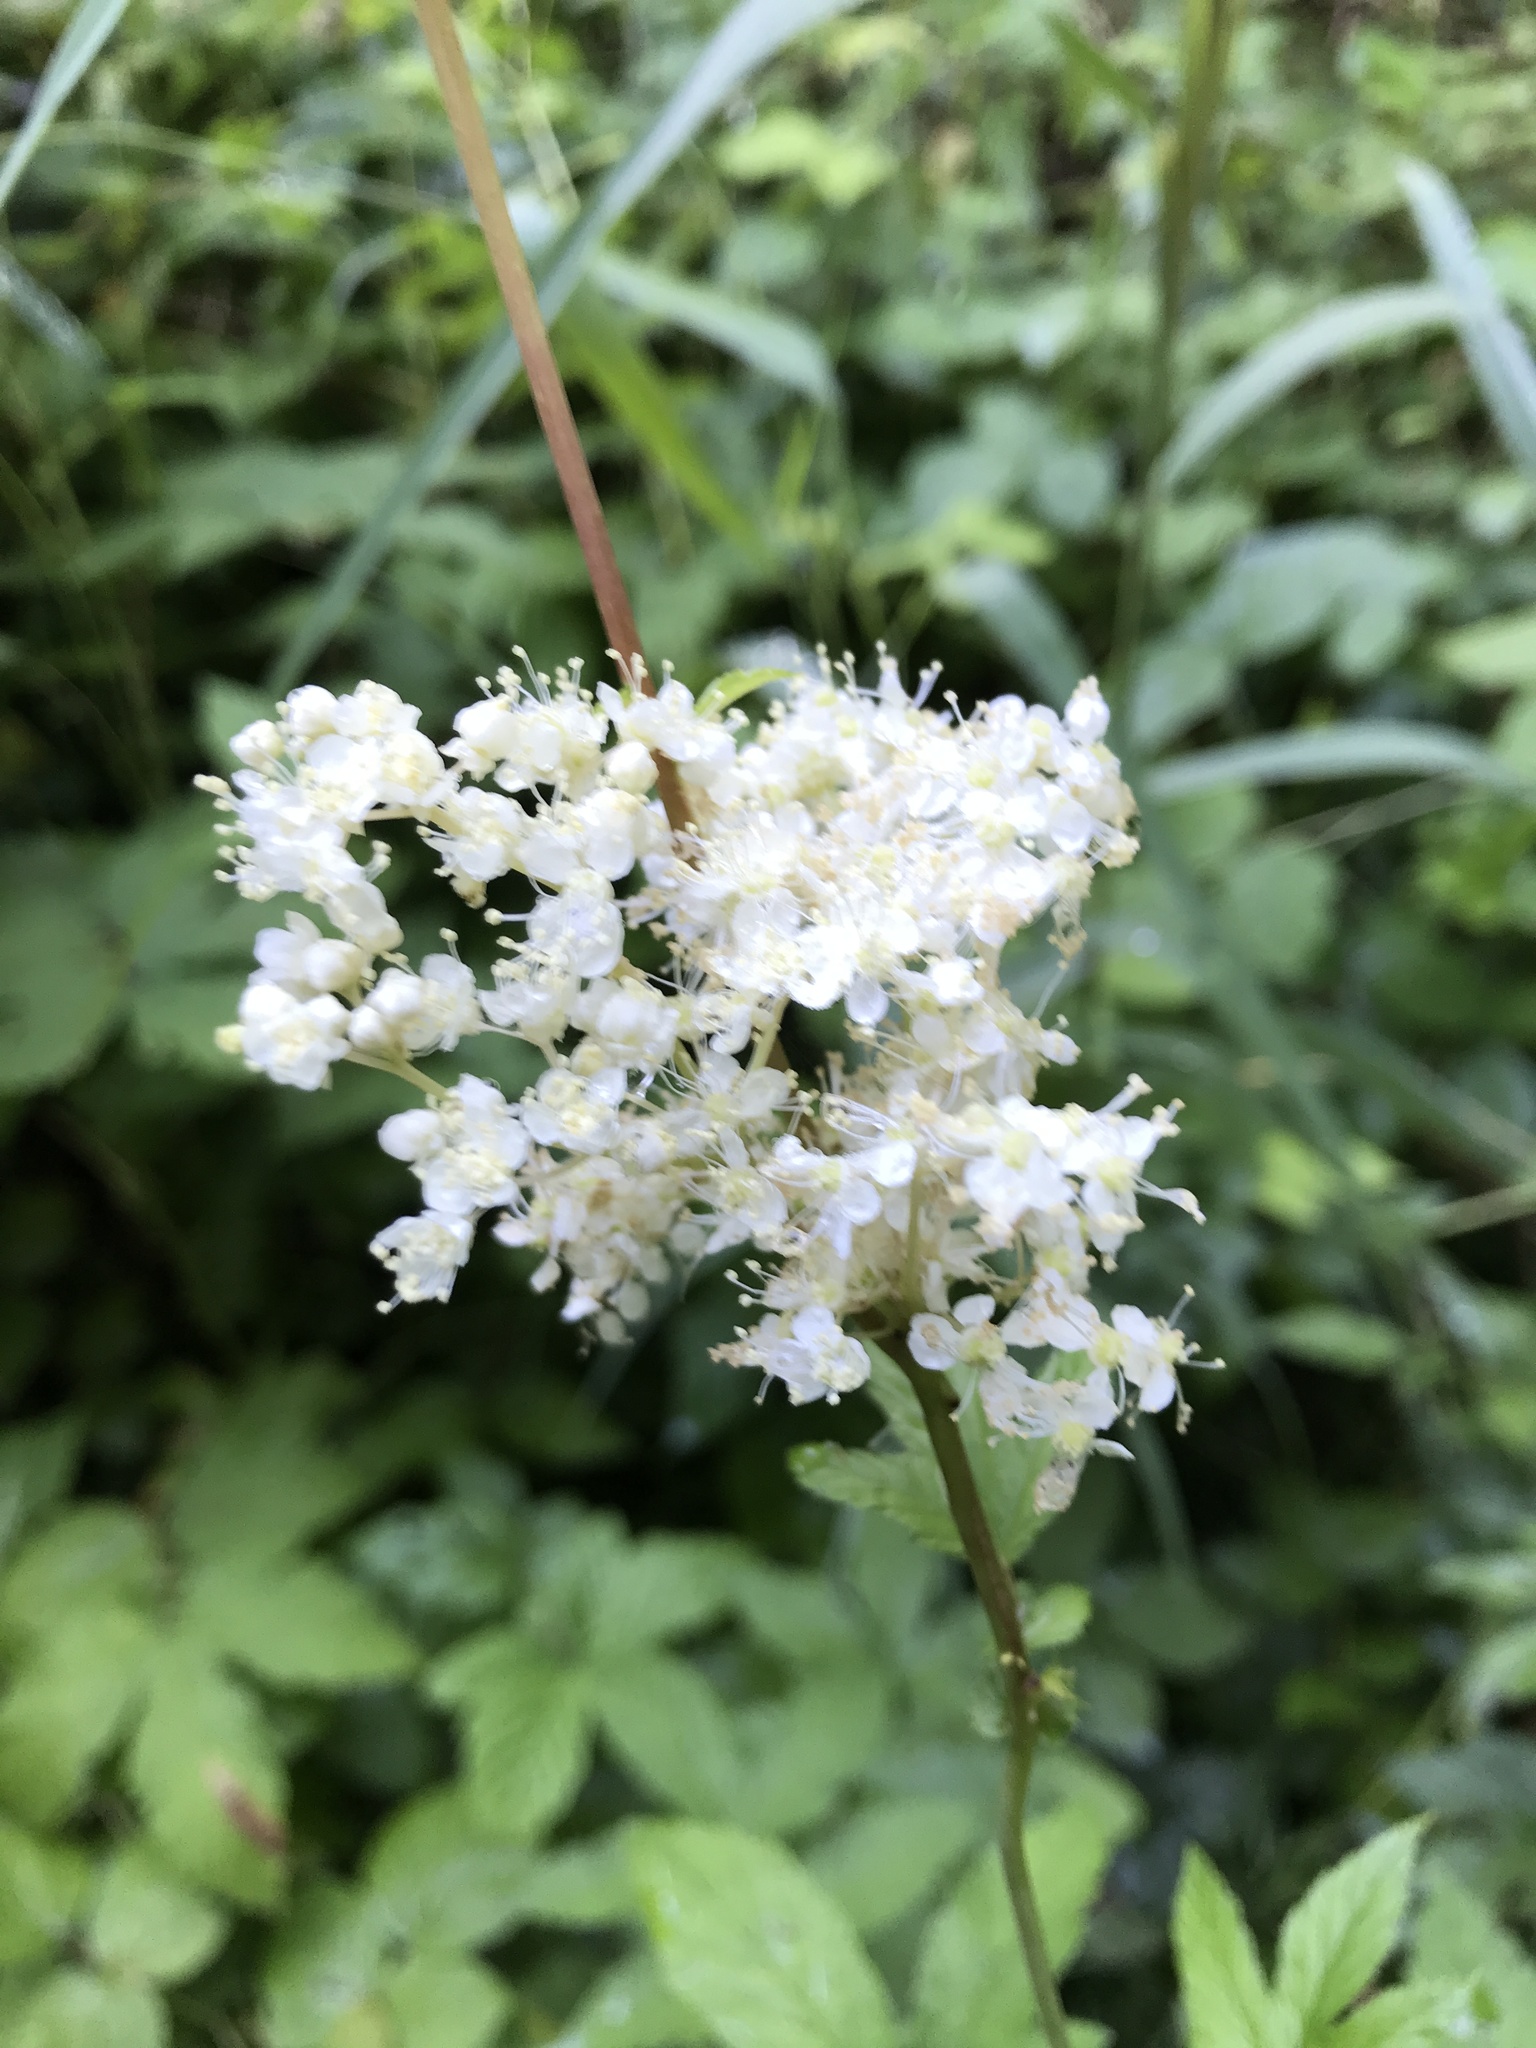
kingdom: Plantae
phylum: Tracheophyta
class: Magnoliopsida
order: Rosales
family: Rosaceae
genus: Filipendula
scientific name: Filipendula ulmaria
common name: Meadowsweet
